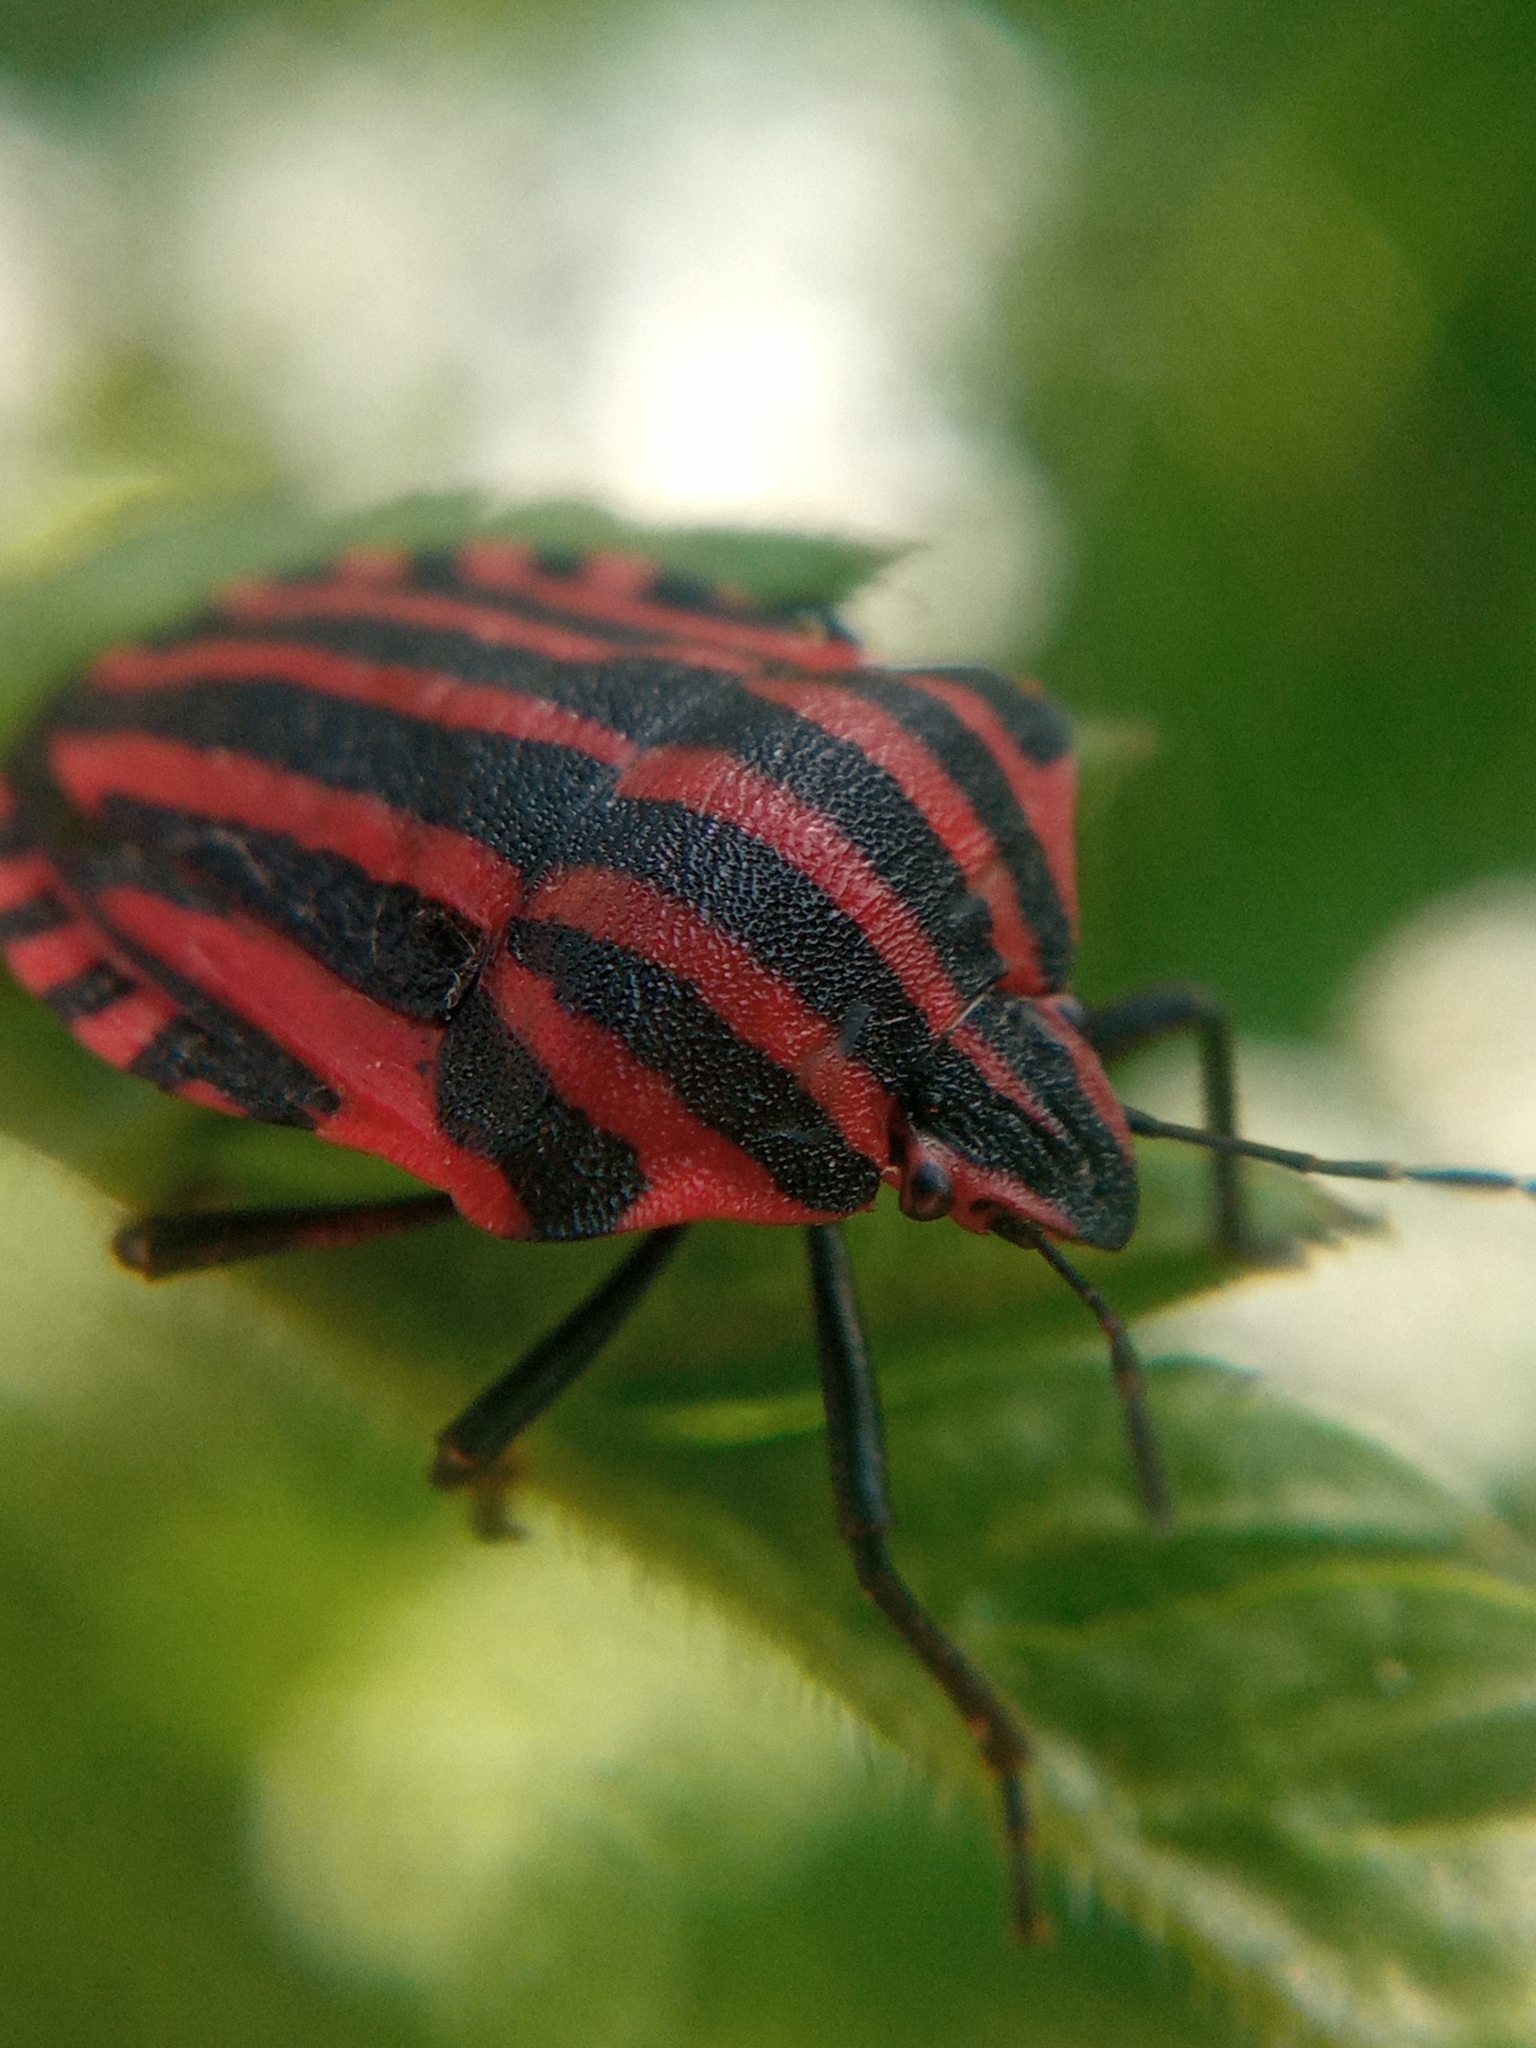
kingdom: Animalia
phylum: Arthropoda
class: Insecta
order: Hemiptera
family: Pentatomidae
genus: Graphosoma
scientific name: Graphosoma italicum
